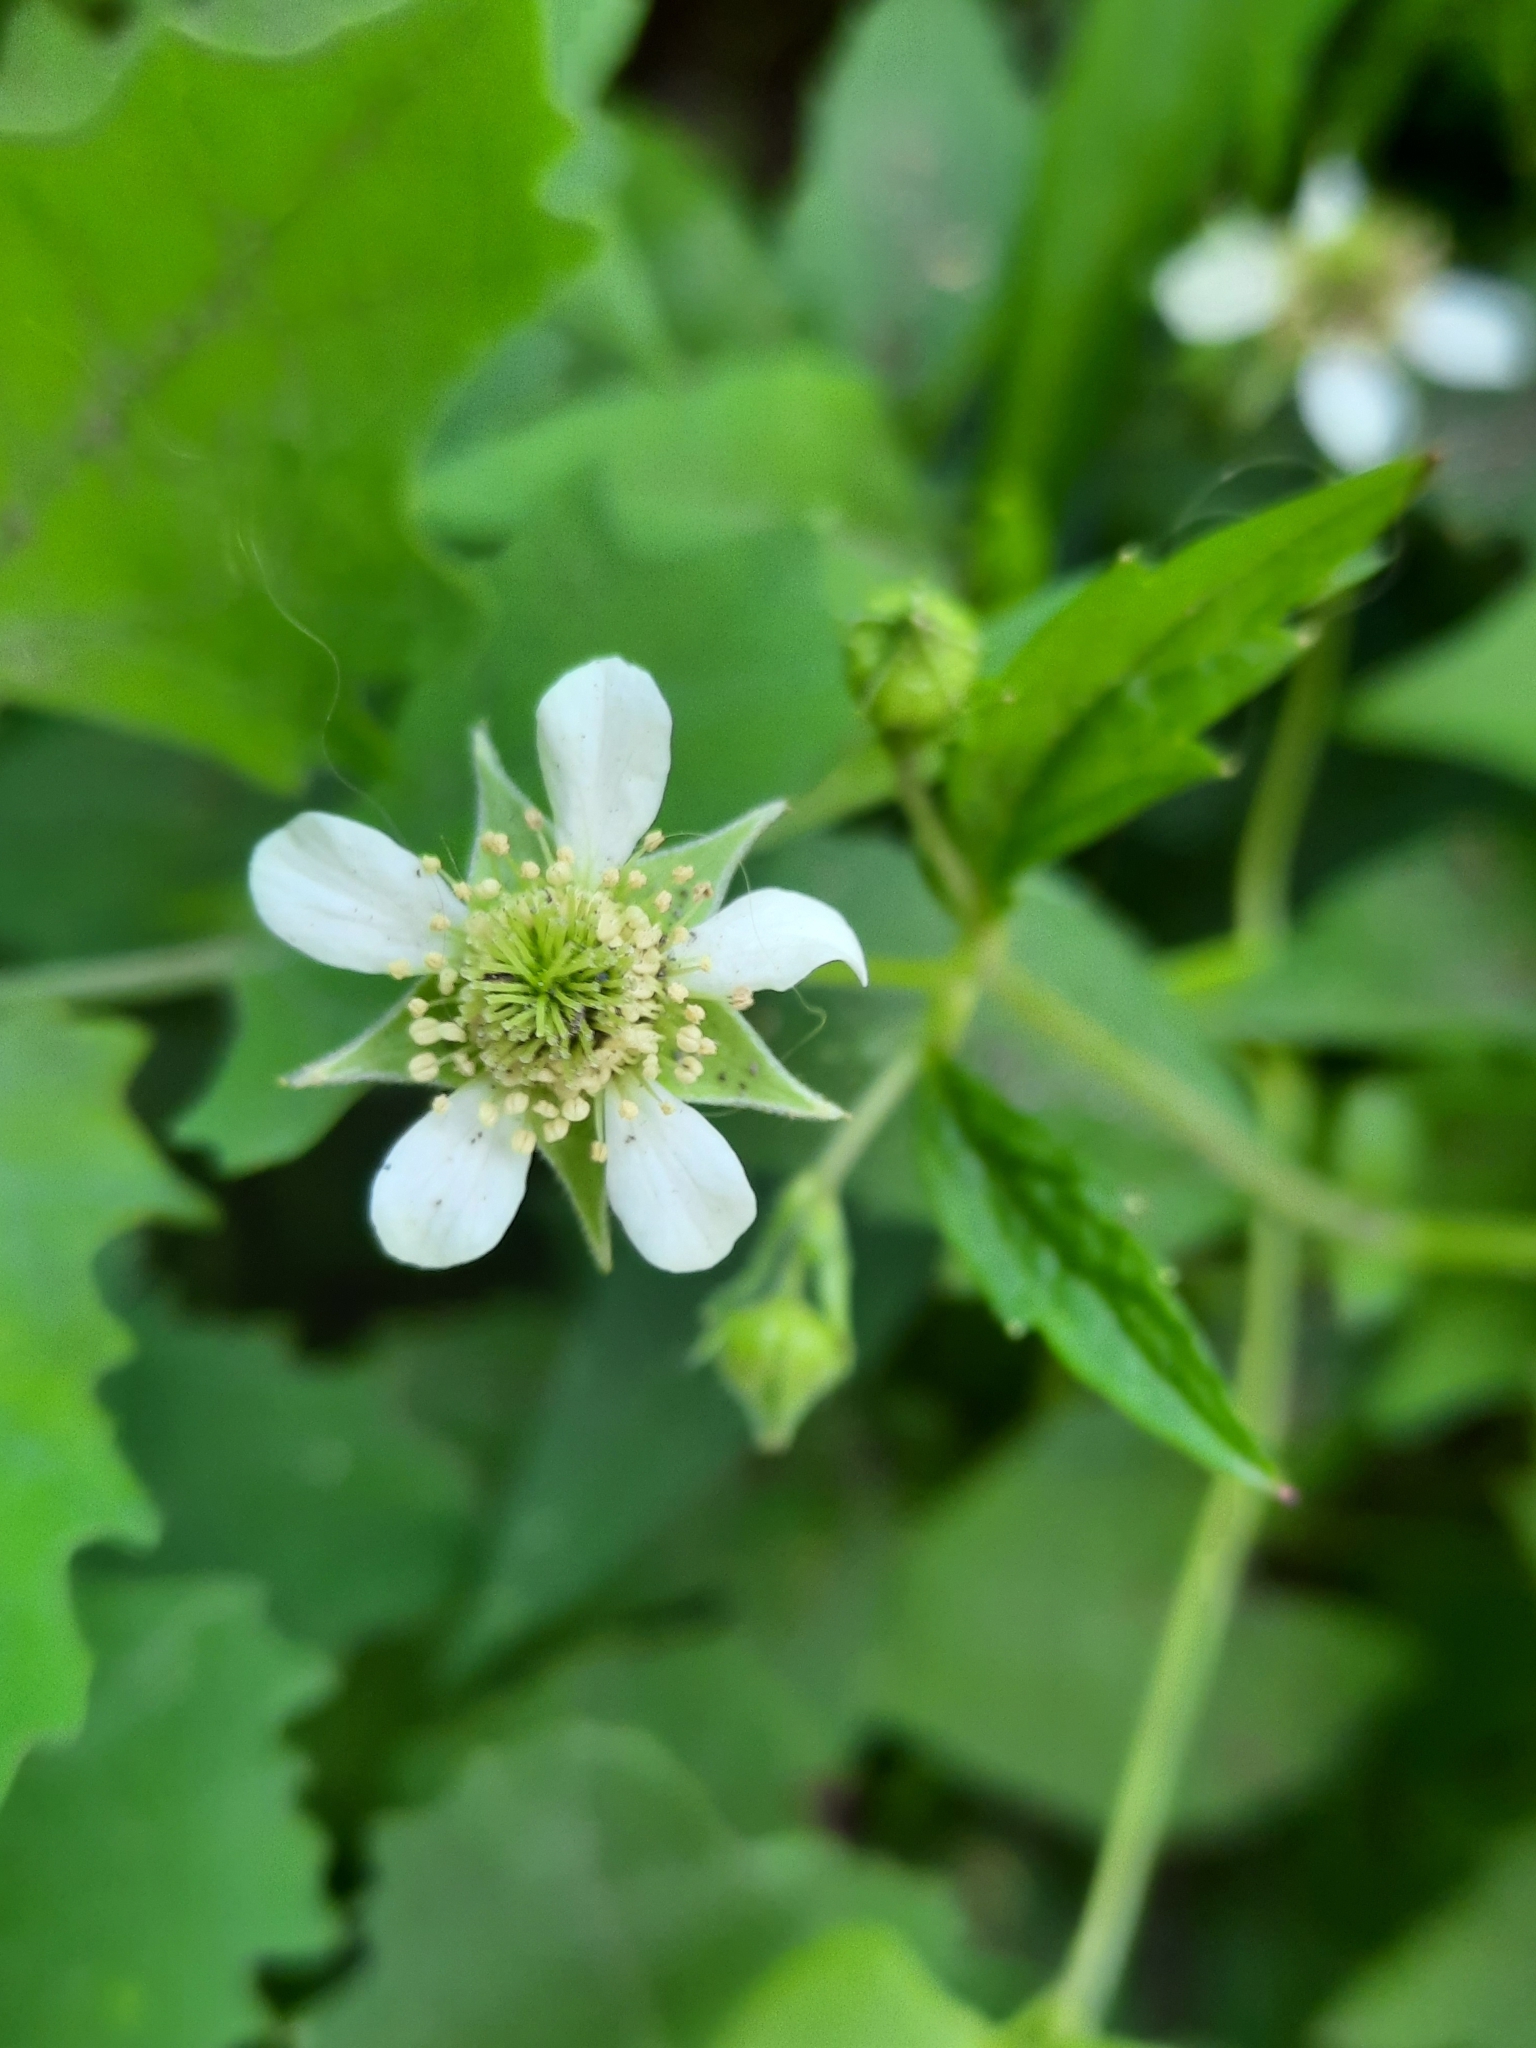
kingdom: Plantae
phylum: Tracheophyta
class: Magnoliopsida
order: Rosales
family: Rosaceae
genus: Geum
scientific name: Geum canadense
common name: White avens
